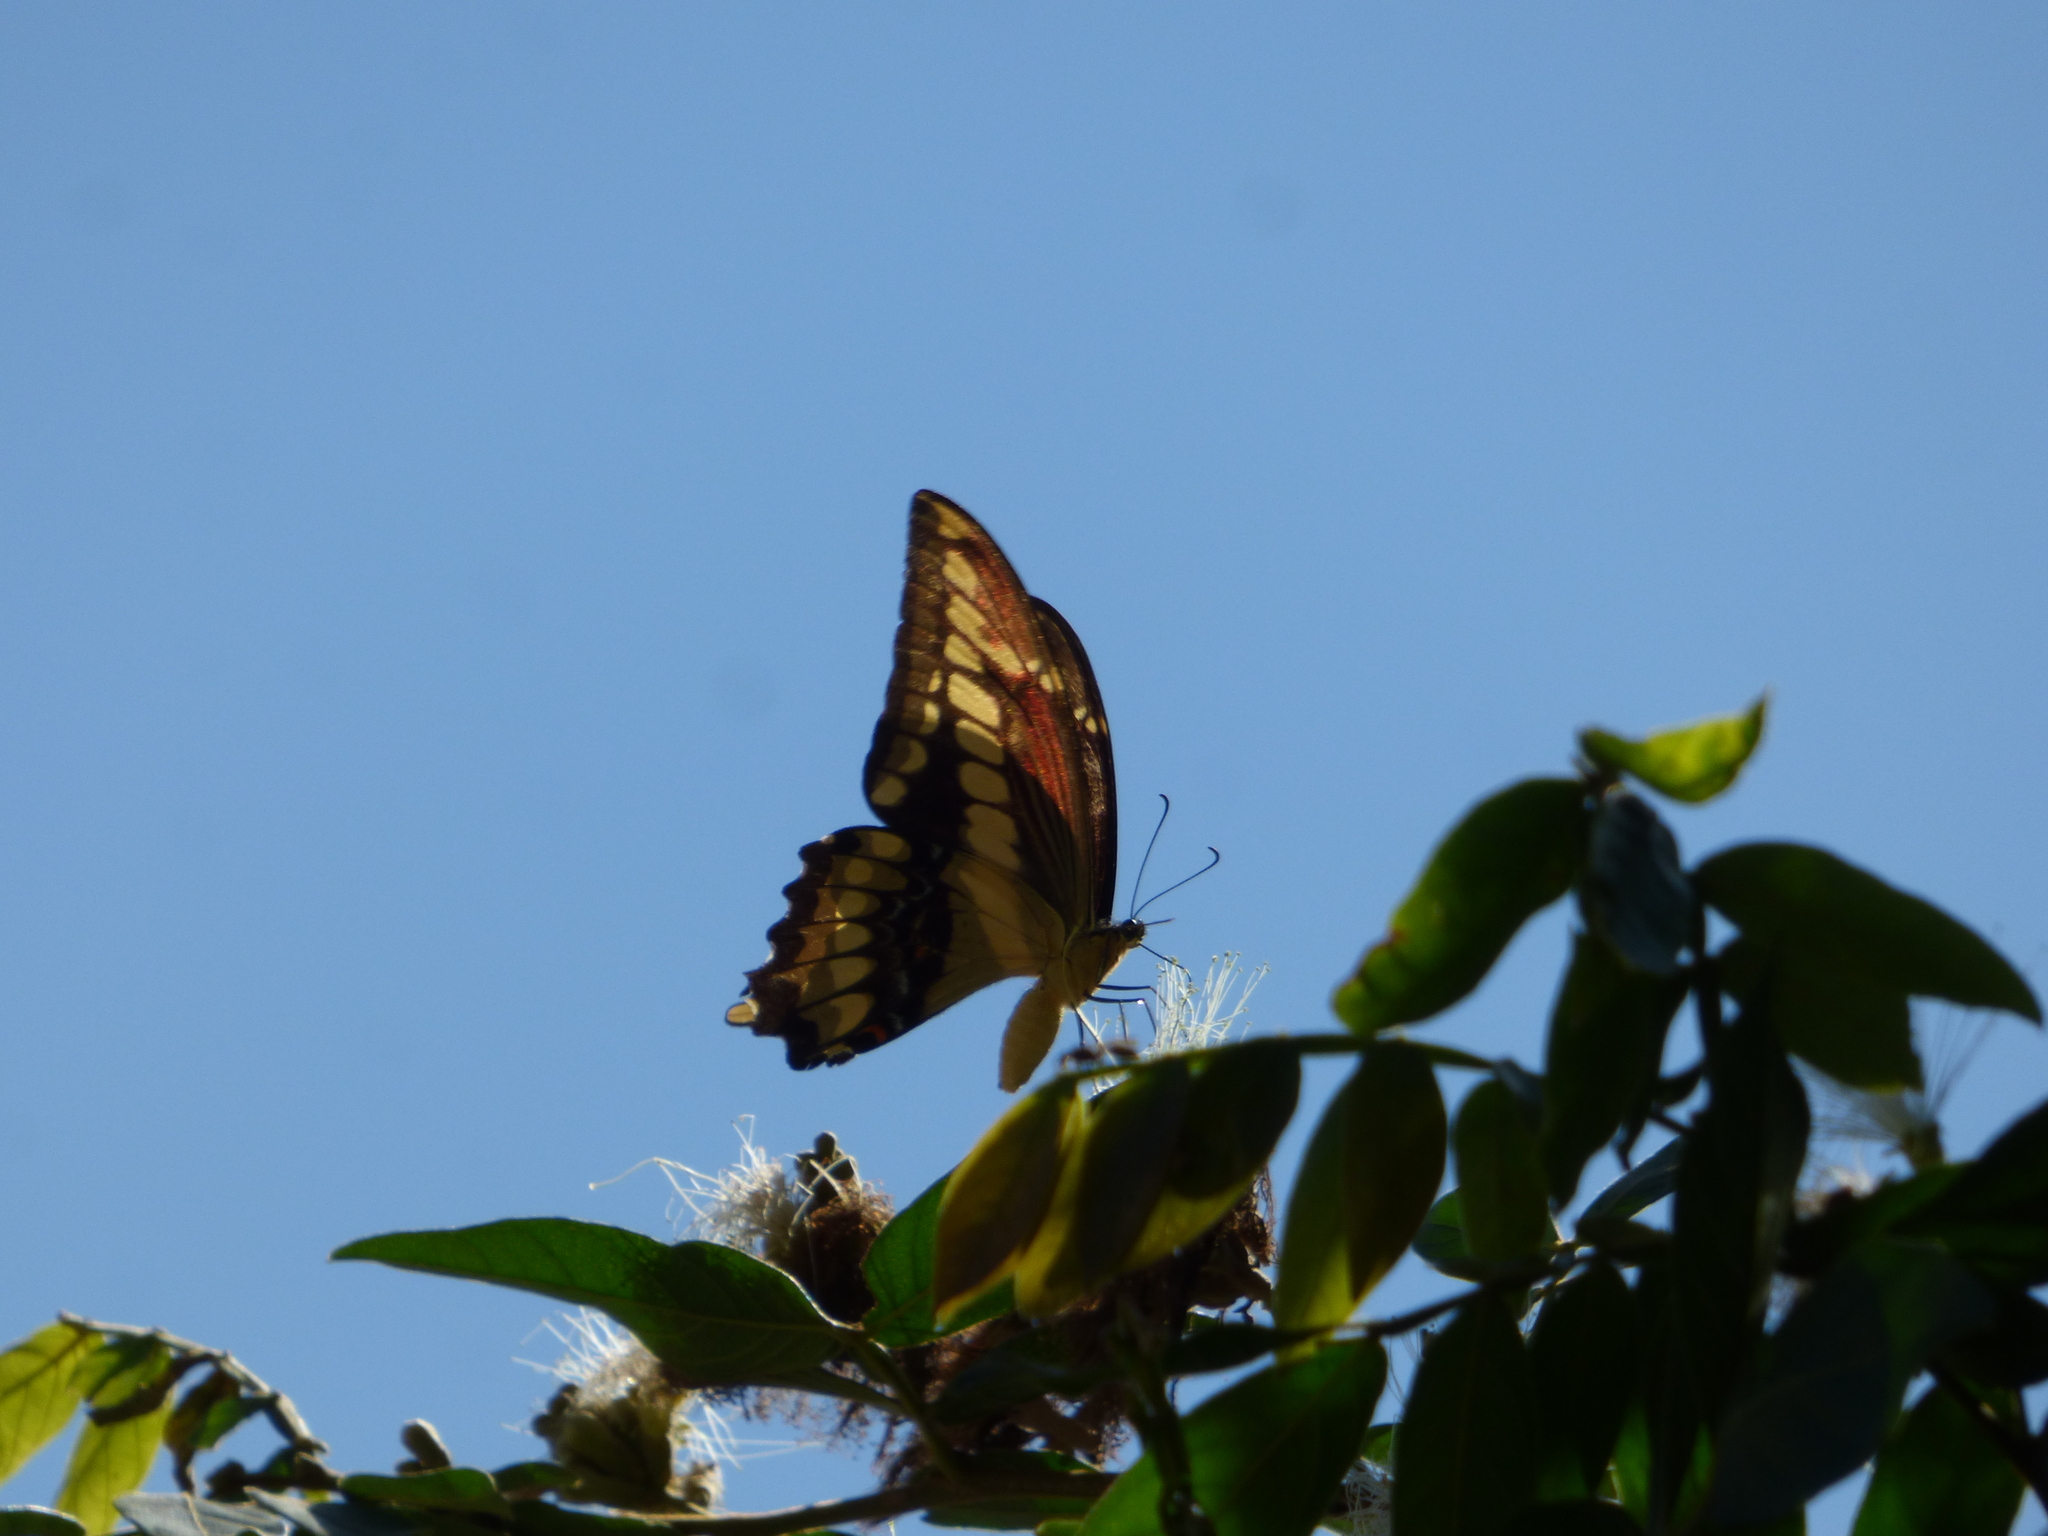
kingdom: Animalia
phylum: Arthropoda
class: Insecta
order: Lepidoptera
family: Papilionidae
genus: Papilio
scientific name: Papilio thoas
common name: King swallowtail
